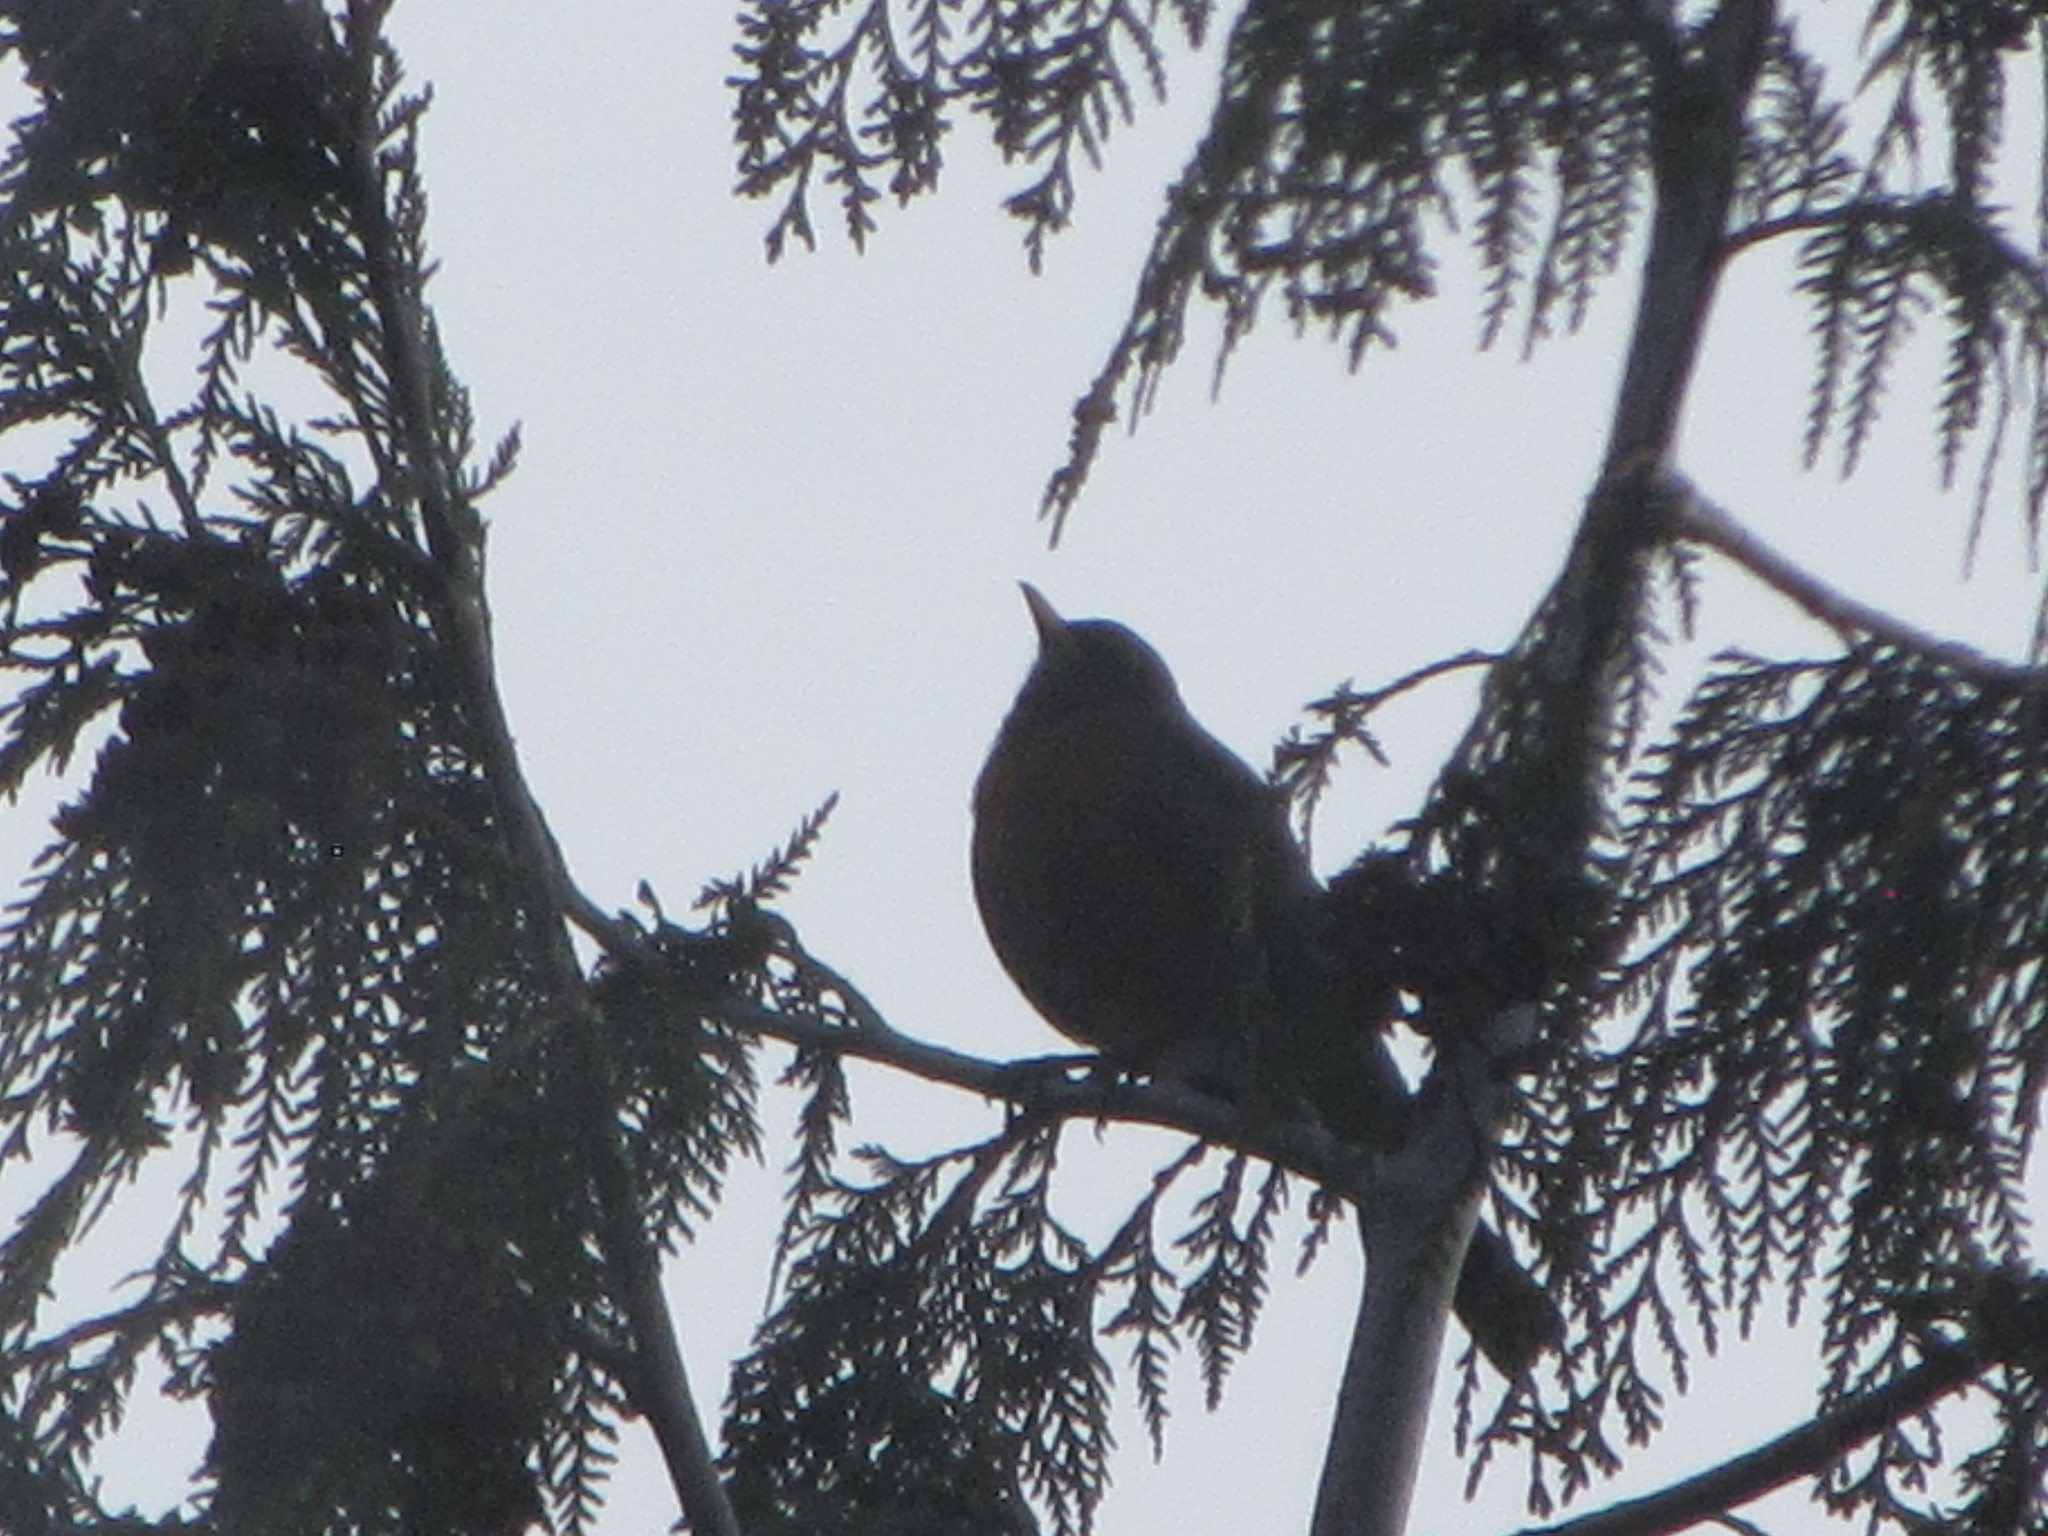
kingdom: Animalia
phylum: Chordata
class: Aves
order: Passeriformes
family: Turdidae
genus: Turdus
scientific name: Turdus migratorius
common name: American robin
